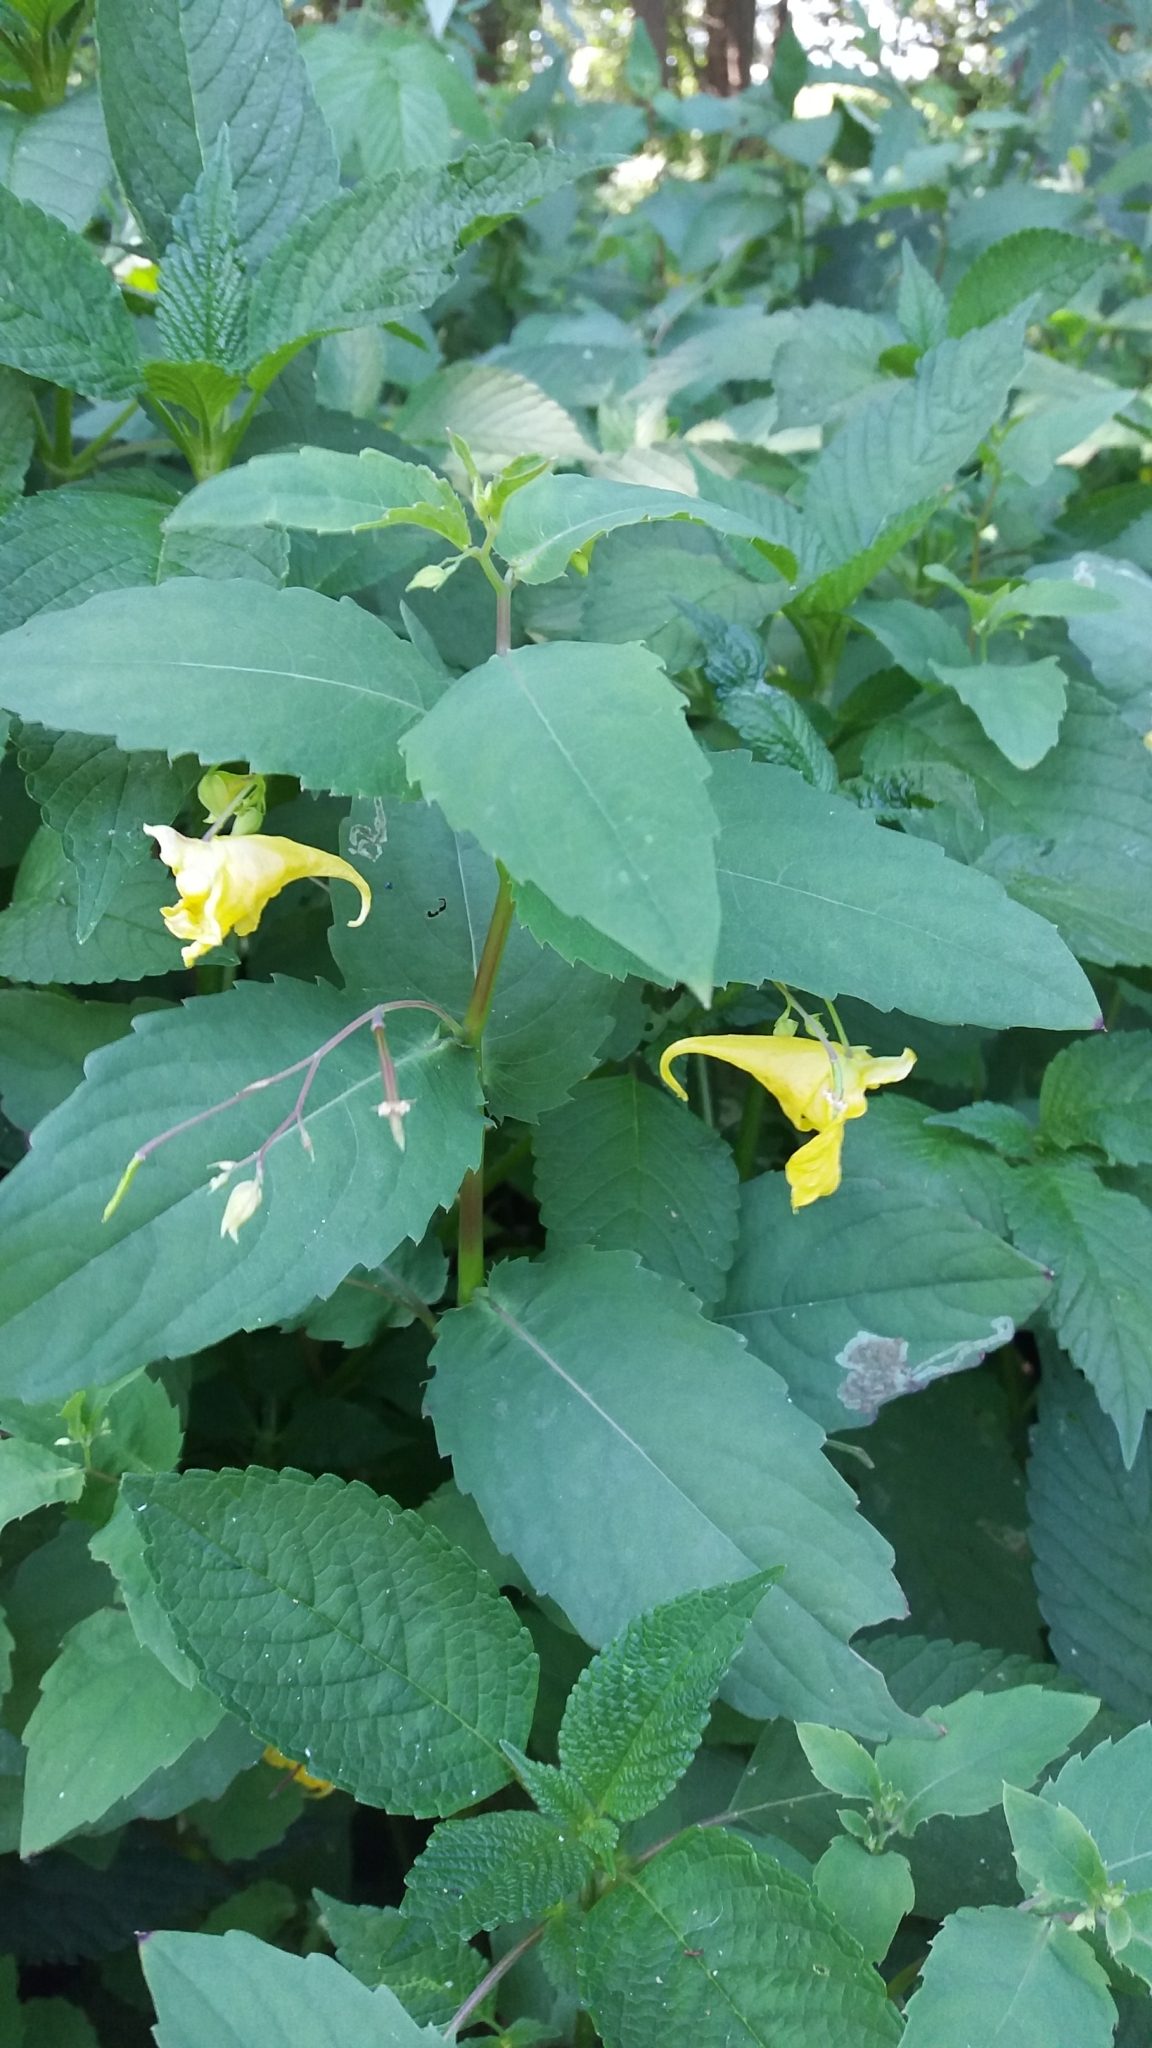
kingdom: Plantae
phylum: Tracheophyta
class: Magnoliopsida
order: Ericales
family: Balsaminaceae
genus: Impatiens
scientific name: Impatiens noli-tangere
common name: Touch-me-not balsam
